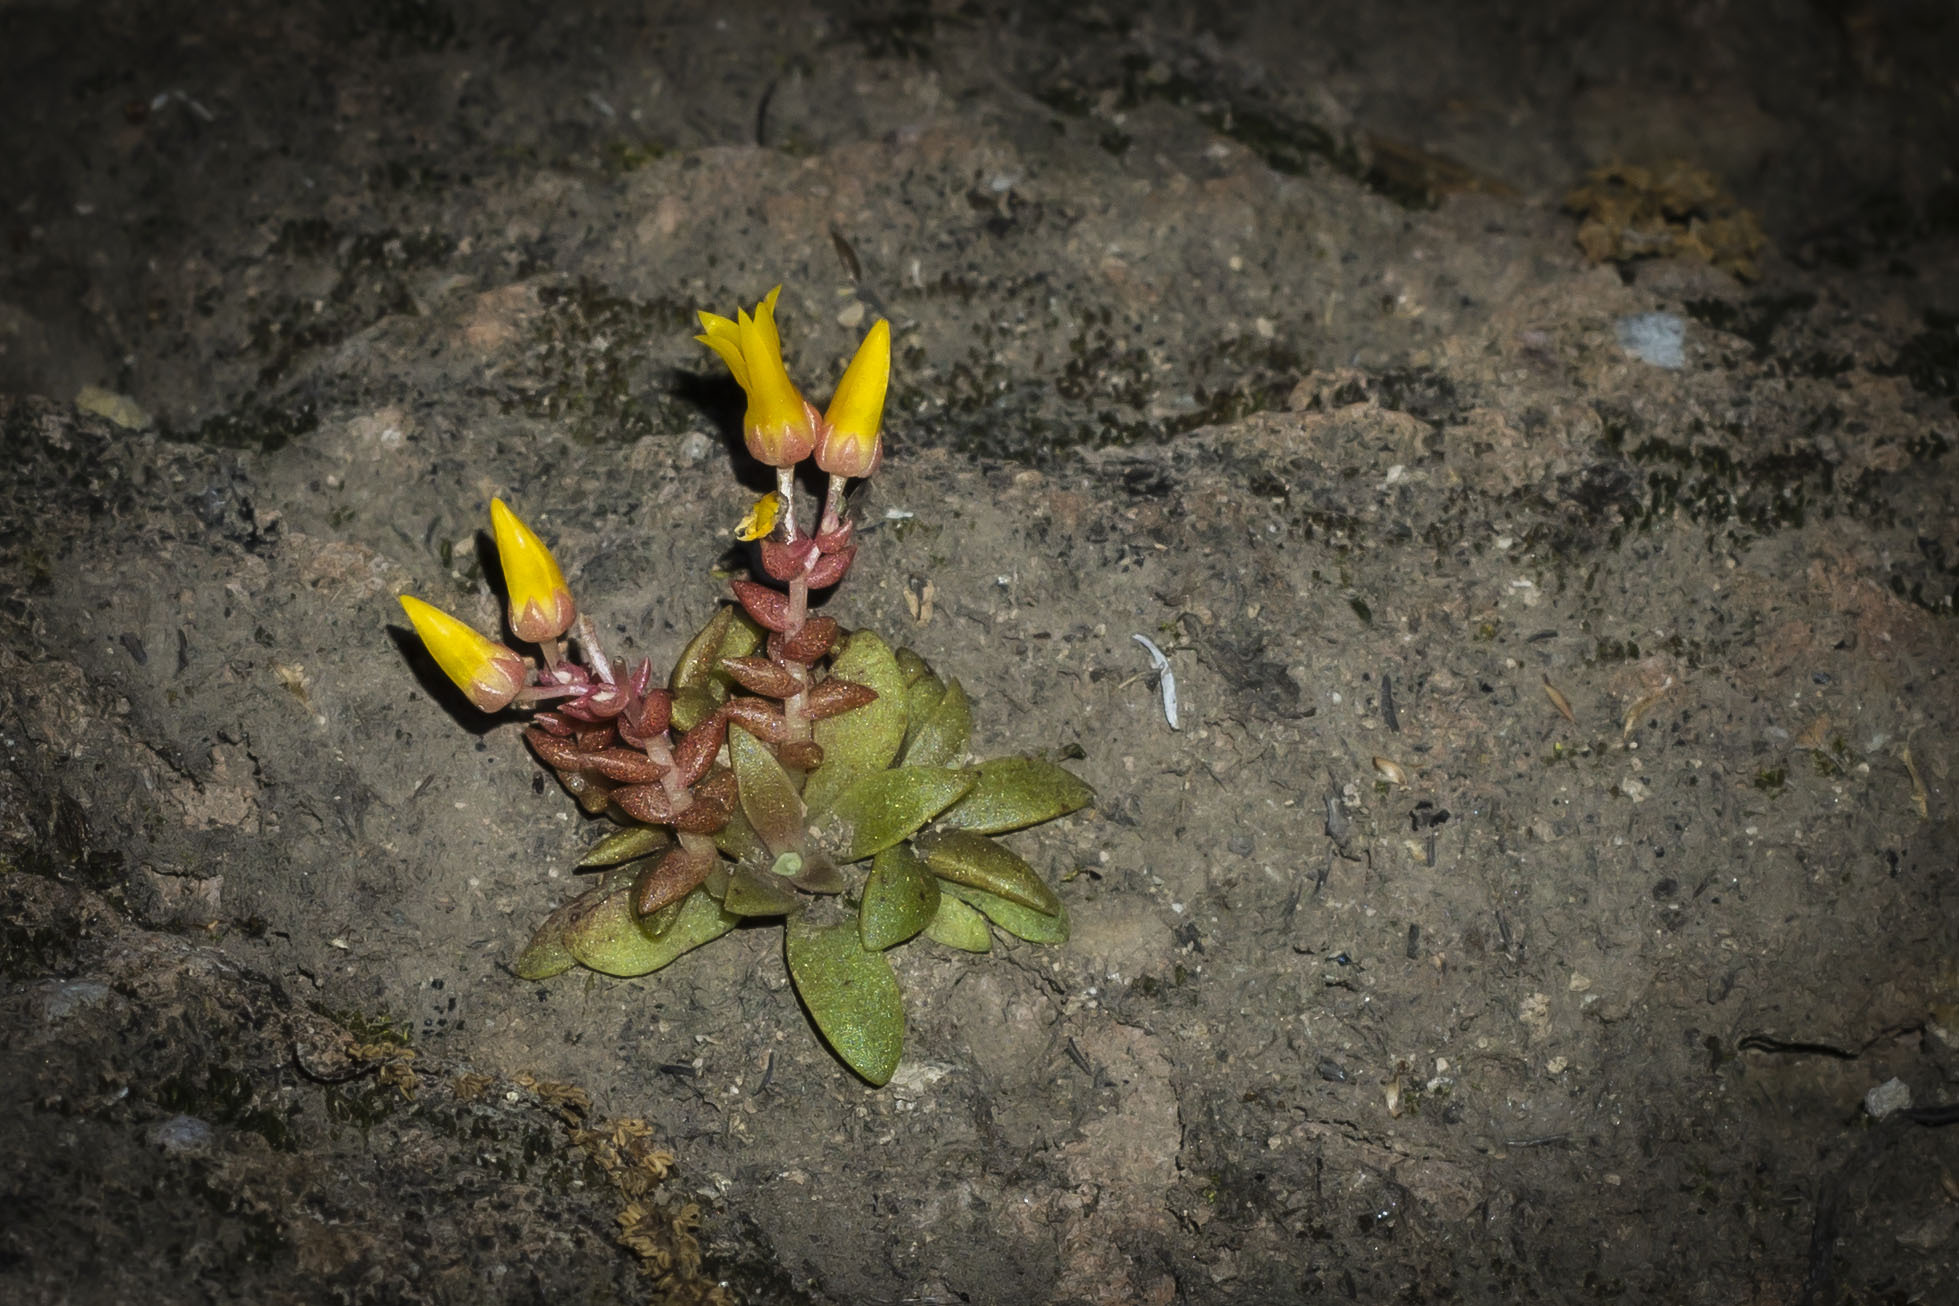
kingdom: Plantae
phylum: Tracheophyta
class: Magnoliopsida
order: Saxifragales
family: Crassulaceae
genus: Dudleya
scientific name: Dudleya cymosa
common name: Canyon dudleya
